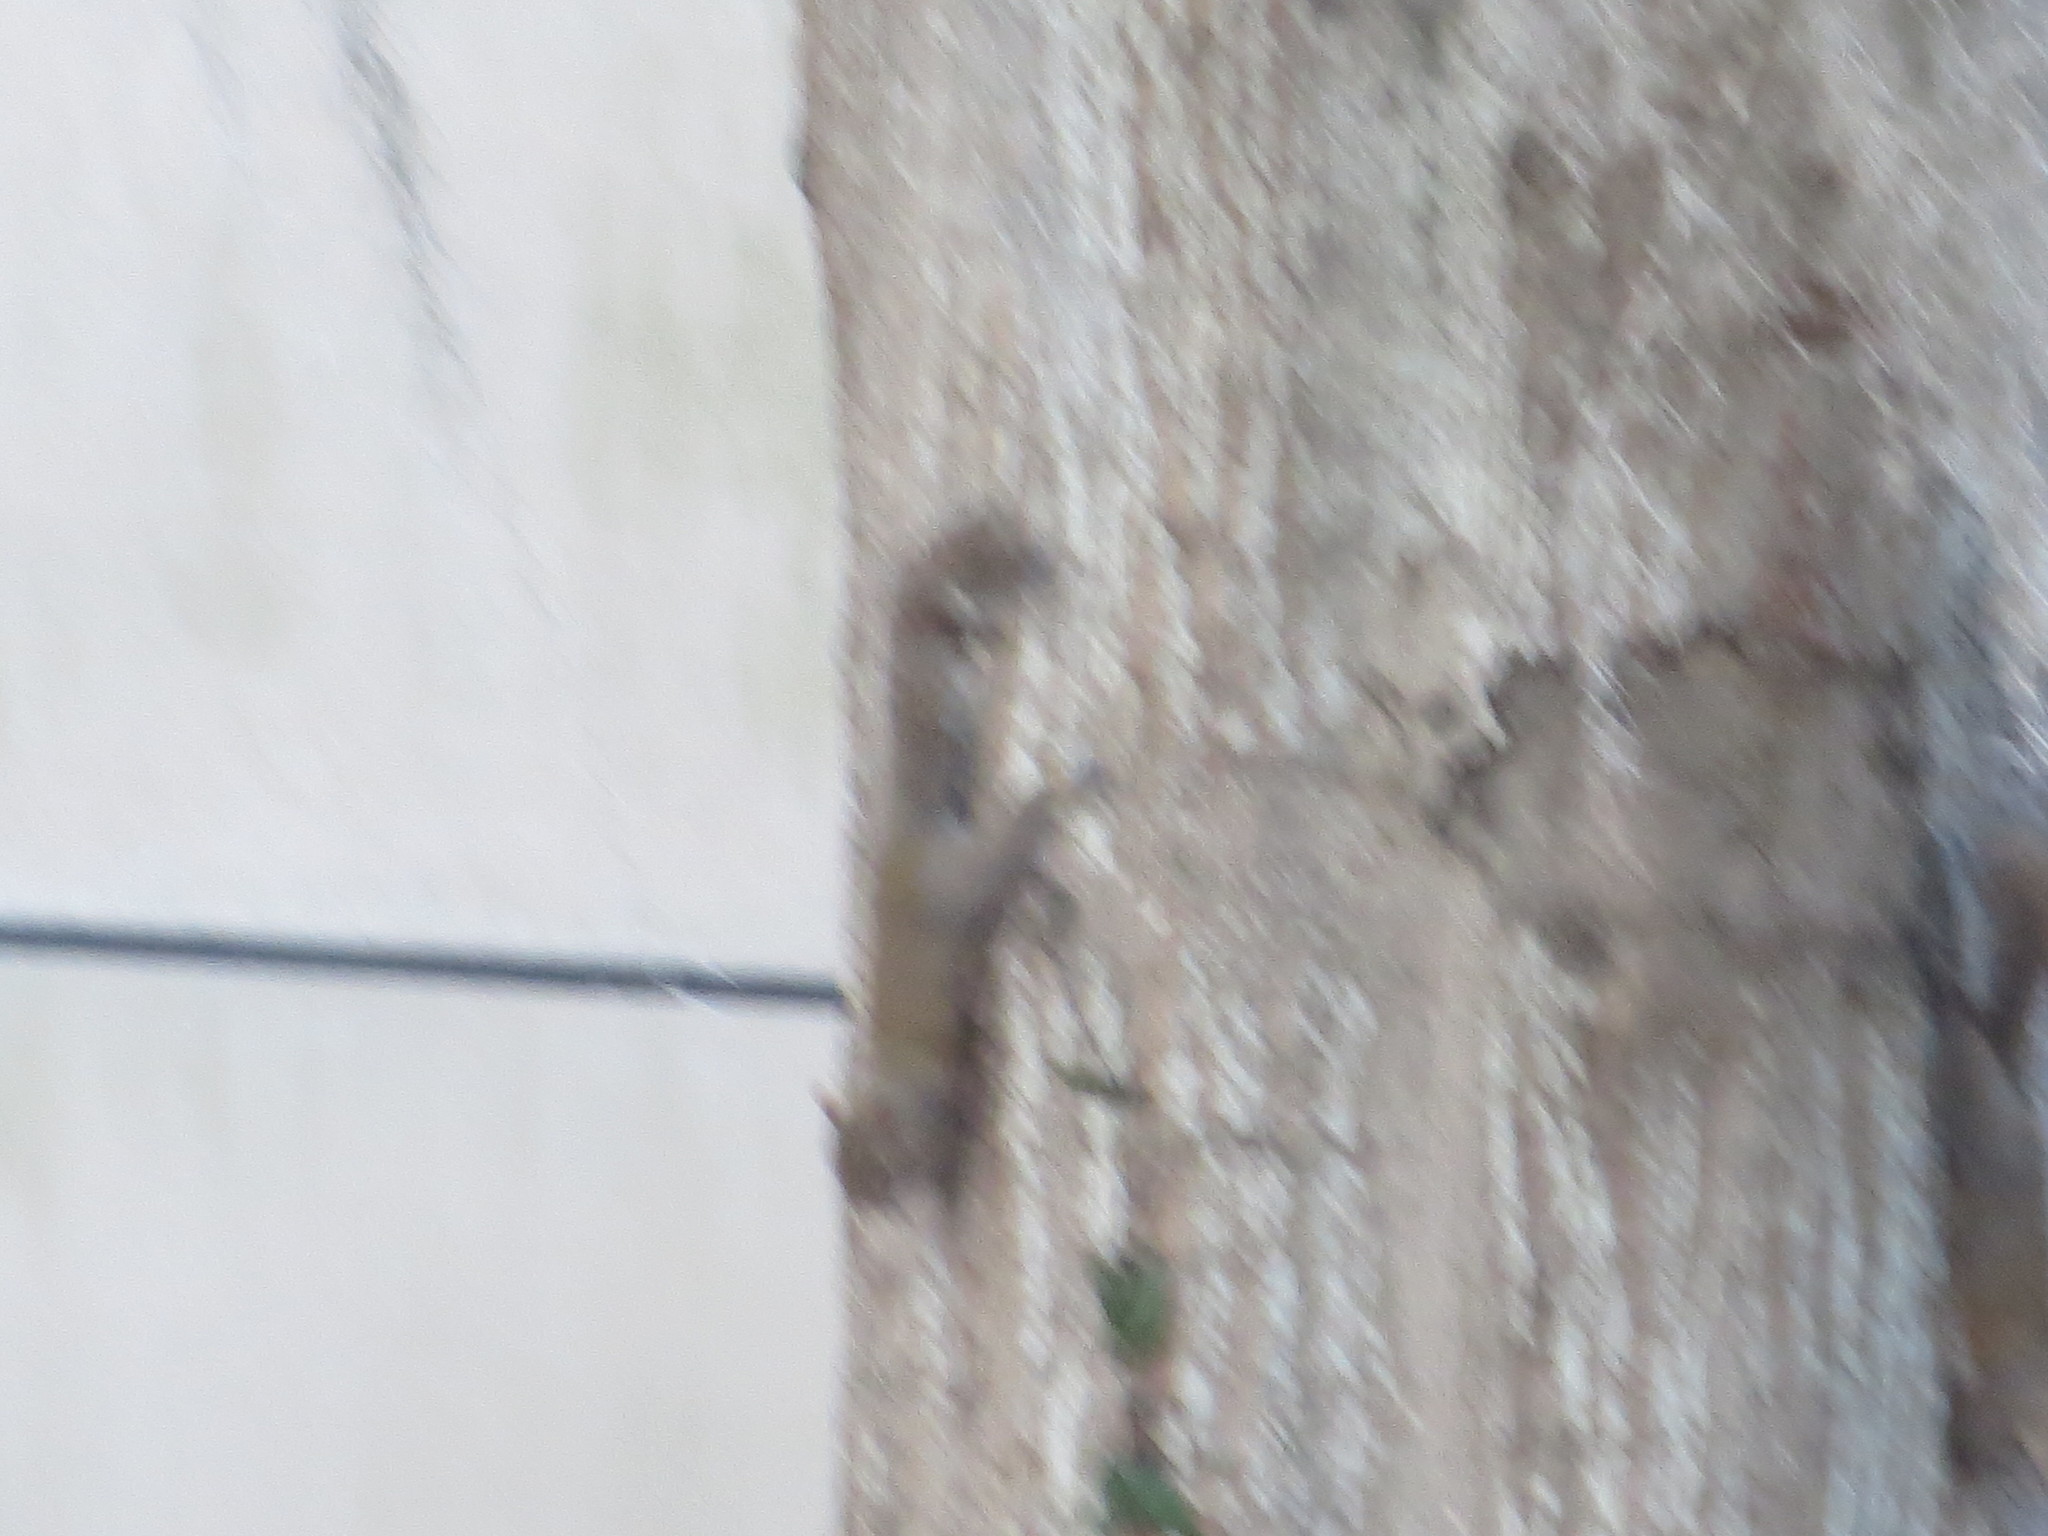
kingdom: Animalia
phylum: Chordata
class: Mammalia
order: Rodentia
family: Sciuridae
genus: Sciurus
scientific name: Sciurus carolinensis
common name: Eastern gray squirrel
